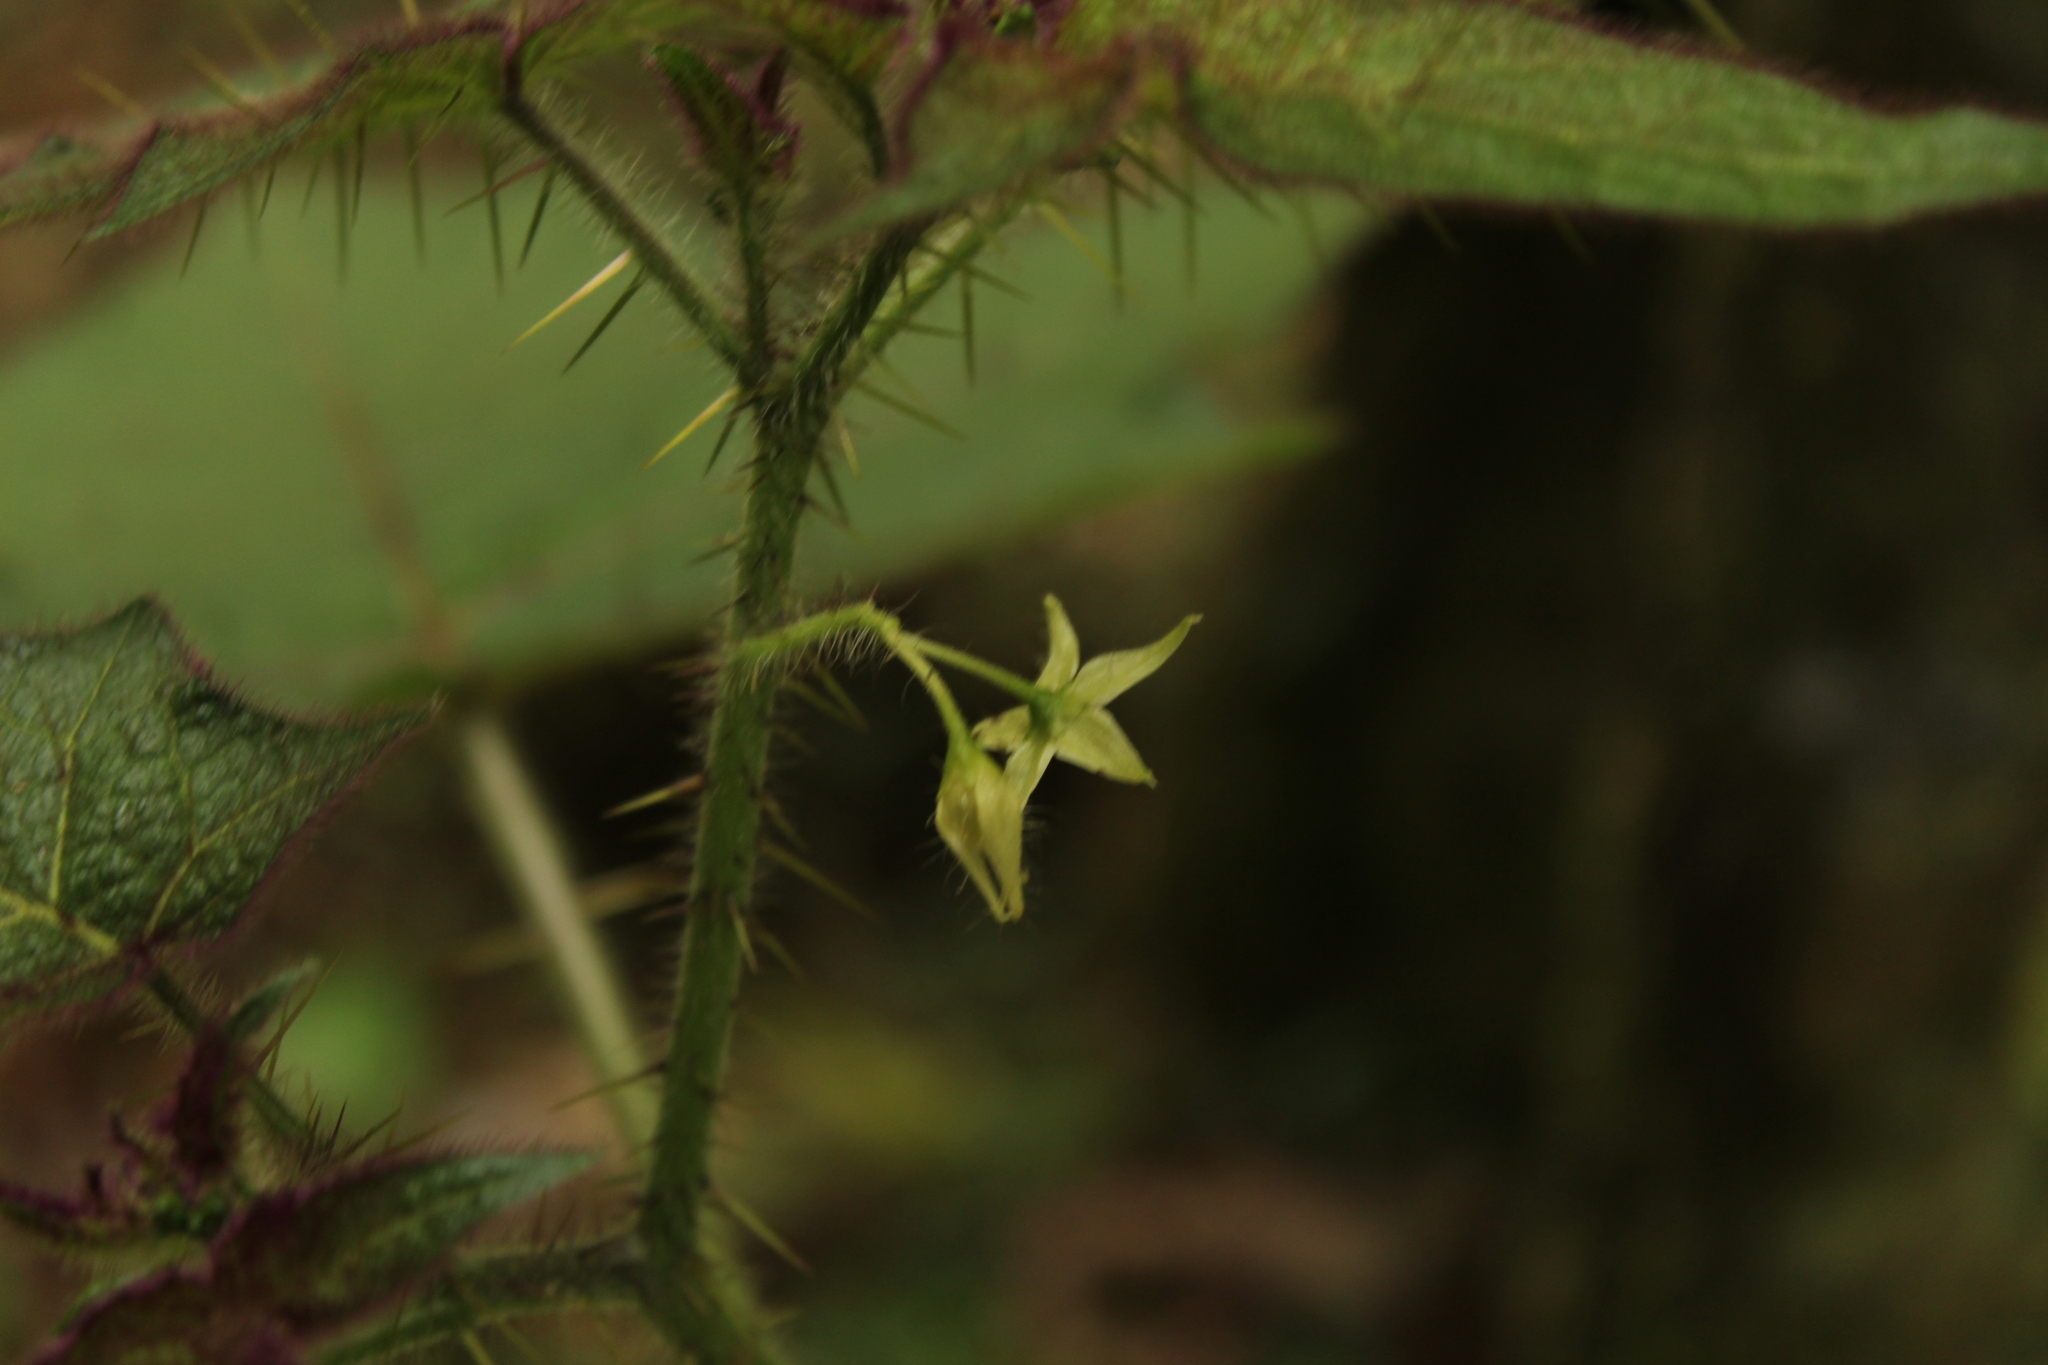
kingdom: Plantae
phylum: Tracheophyta
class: Magnoliopsida
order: Solanales
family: Solanaceae
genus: Solanum
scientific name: Solanum acerifolium
